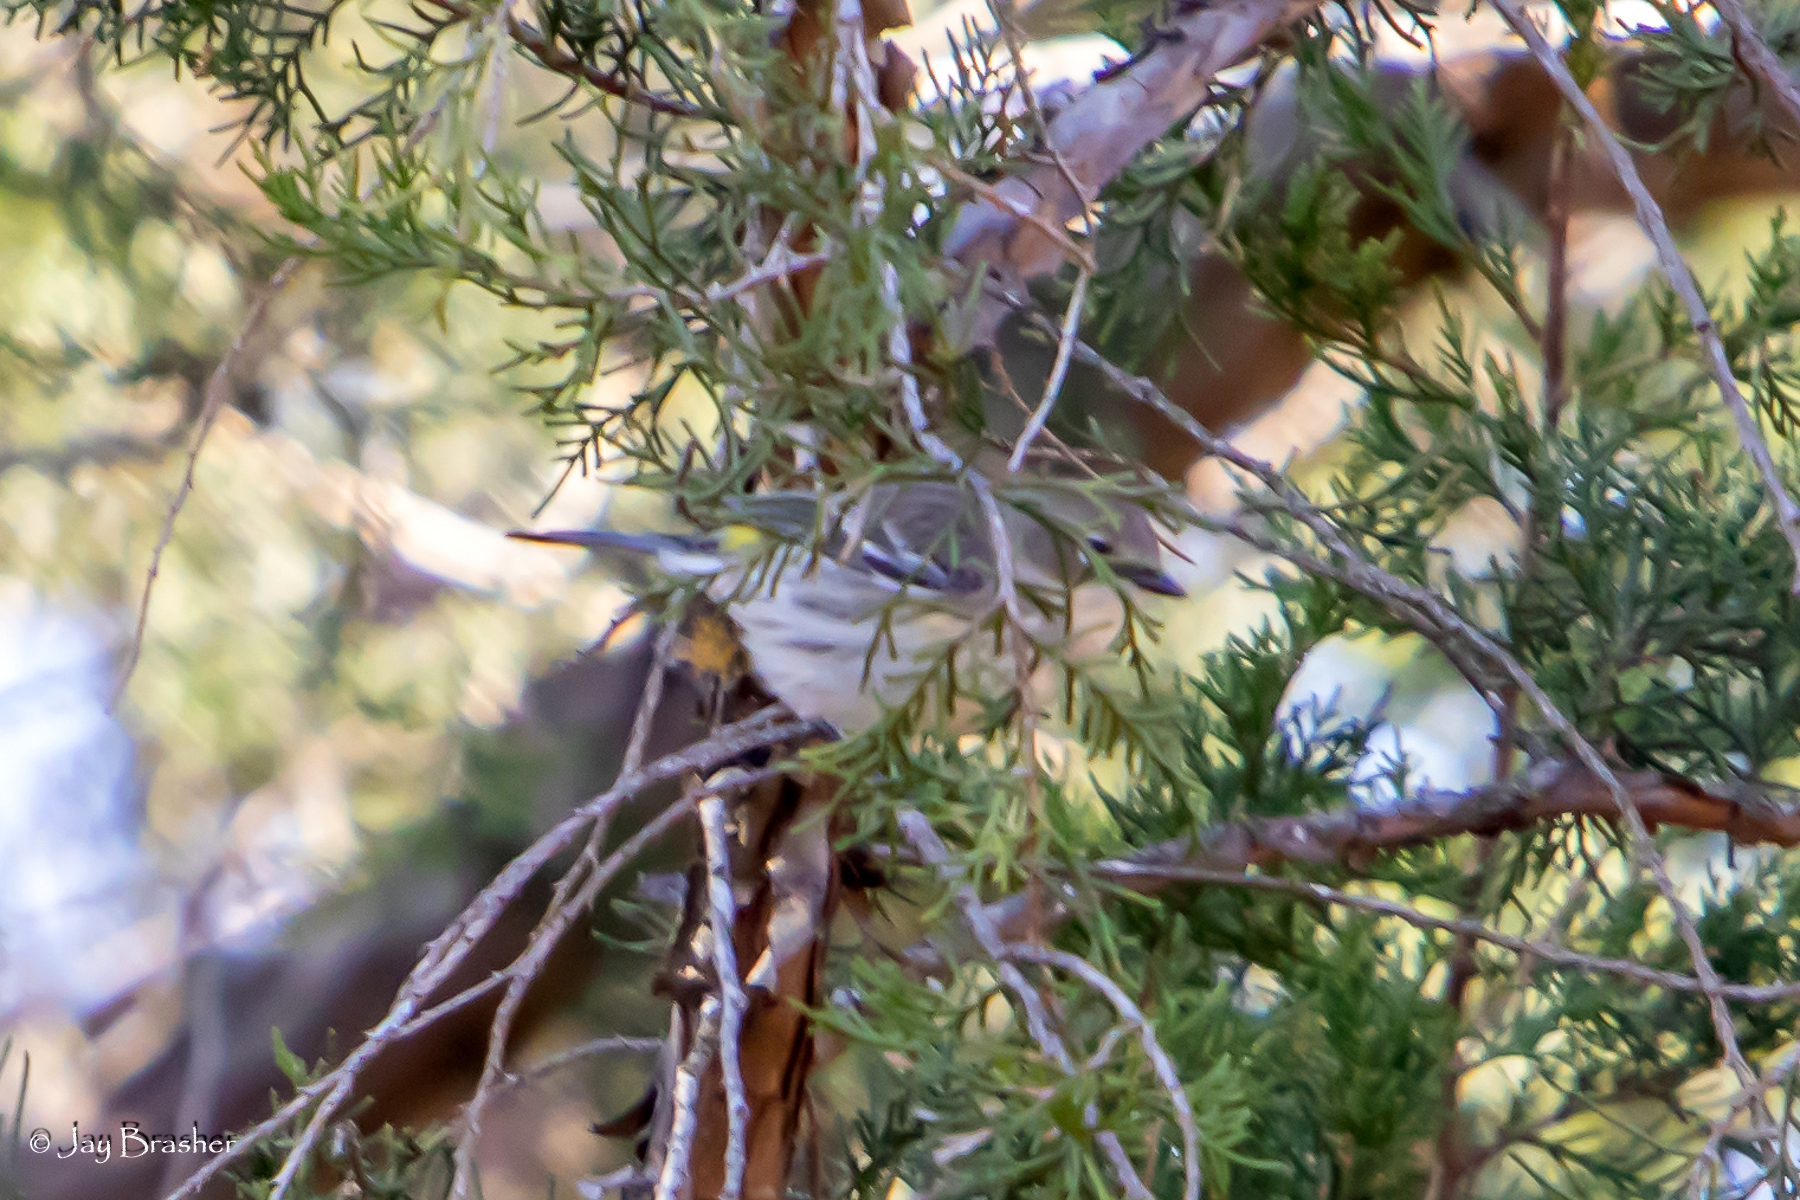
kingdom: Animalia
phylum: Chordata
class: Aves
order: Passeriformes
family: Parulidae
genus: Setophaga
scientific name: Setophaga coronata
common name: Myrtle warbler
